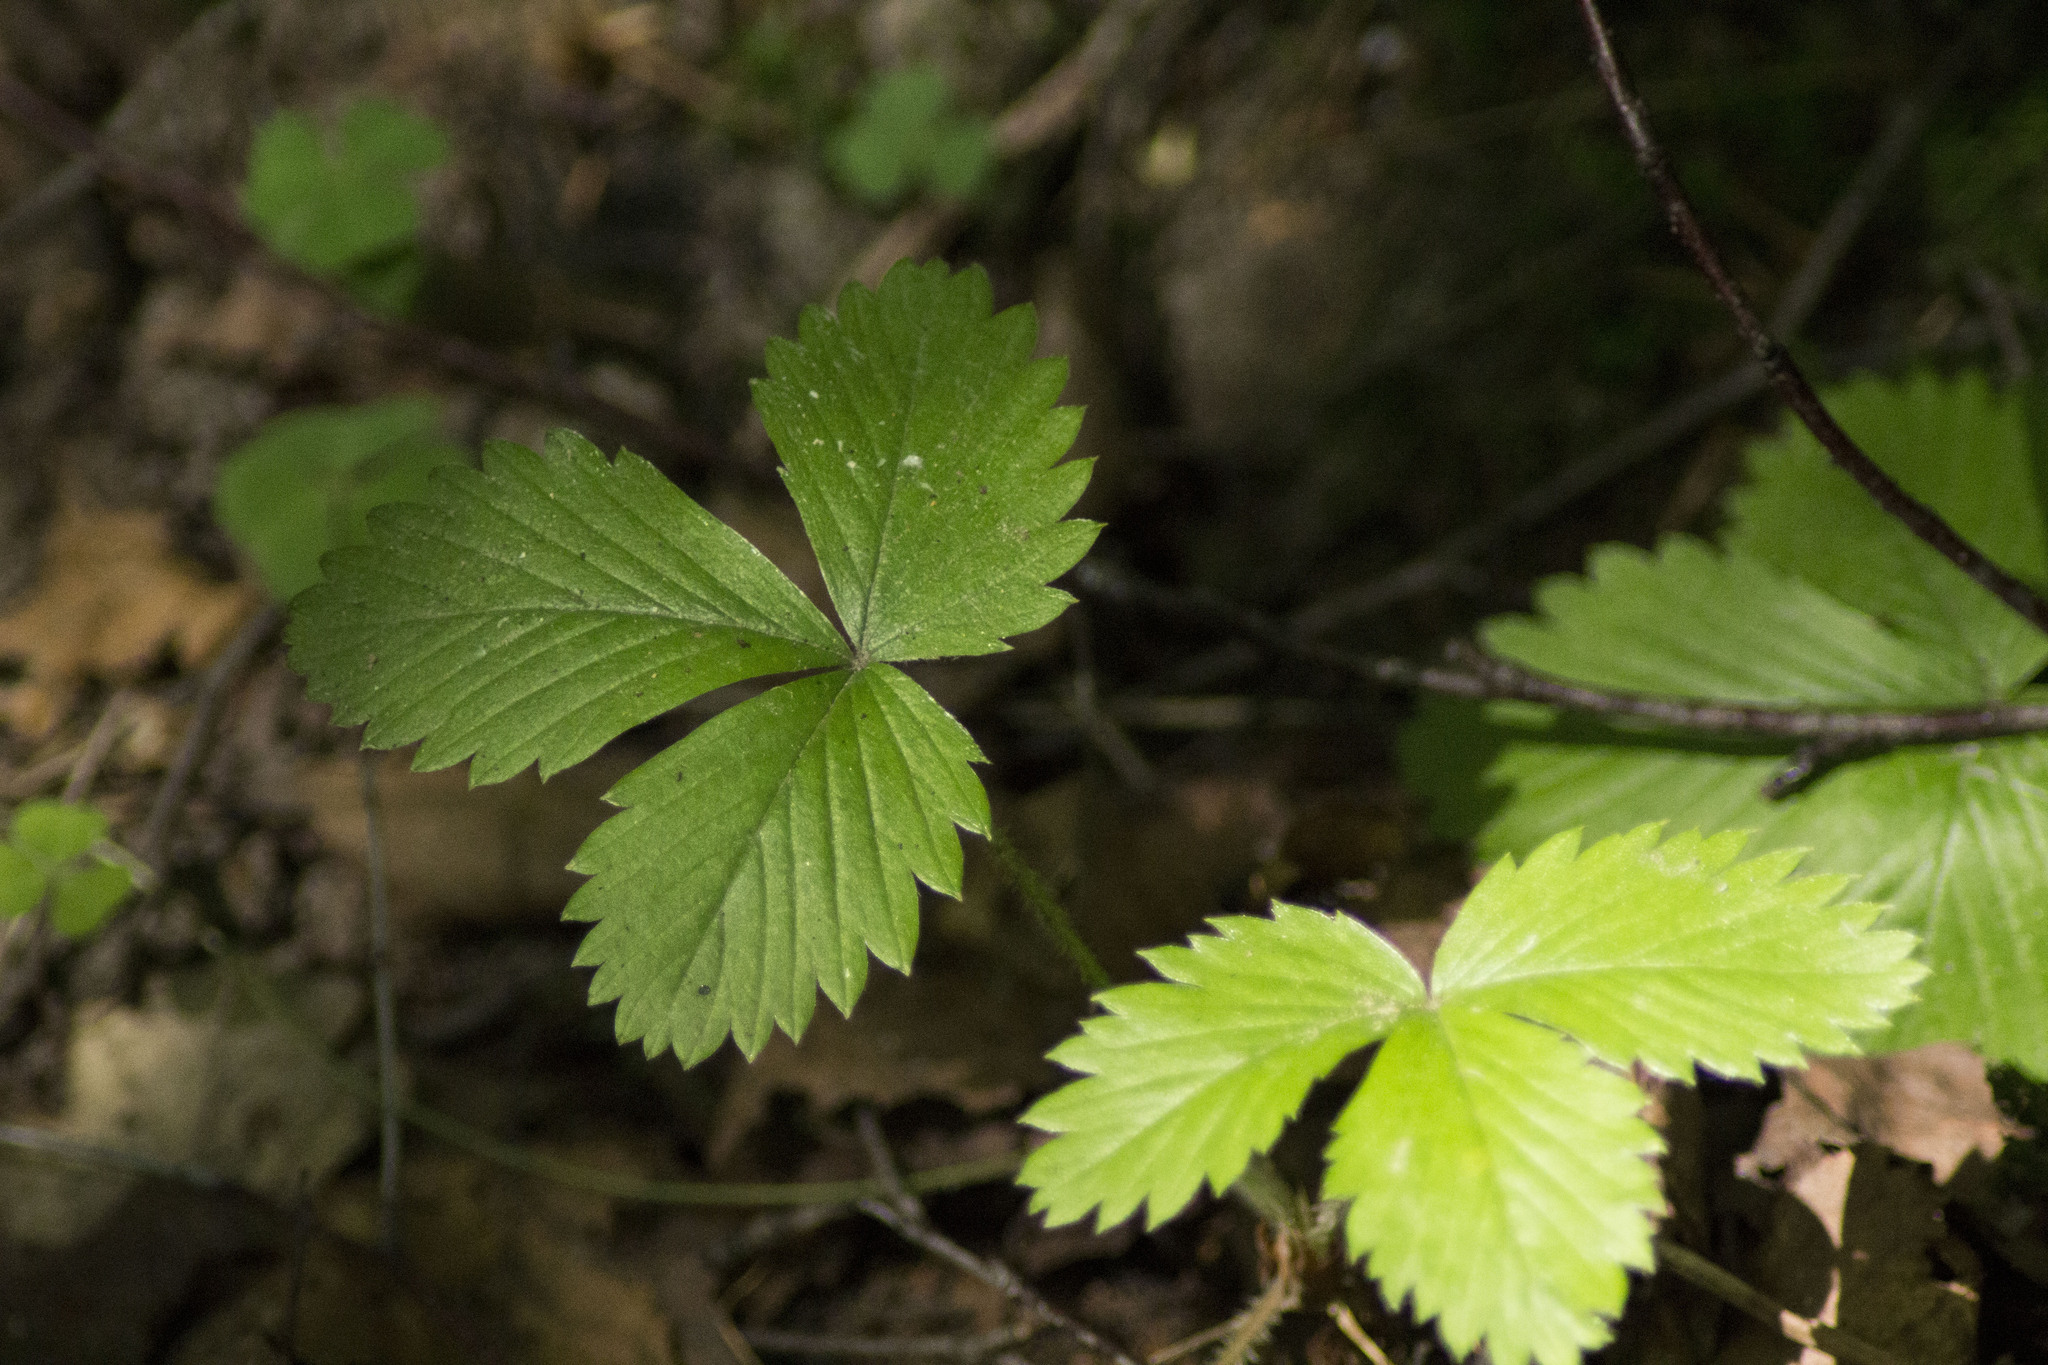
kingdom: Plantae
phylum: Tracheophyta
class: Magnoliopsida
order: Rosales
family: Rosaceae
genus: Fragaria
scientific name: Fragaria vesca
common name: Wild strawberry
